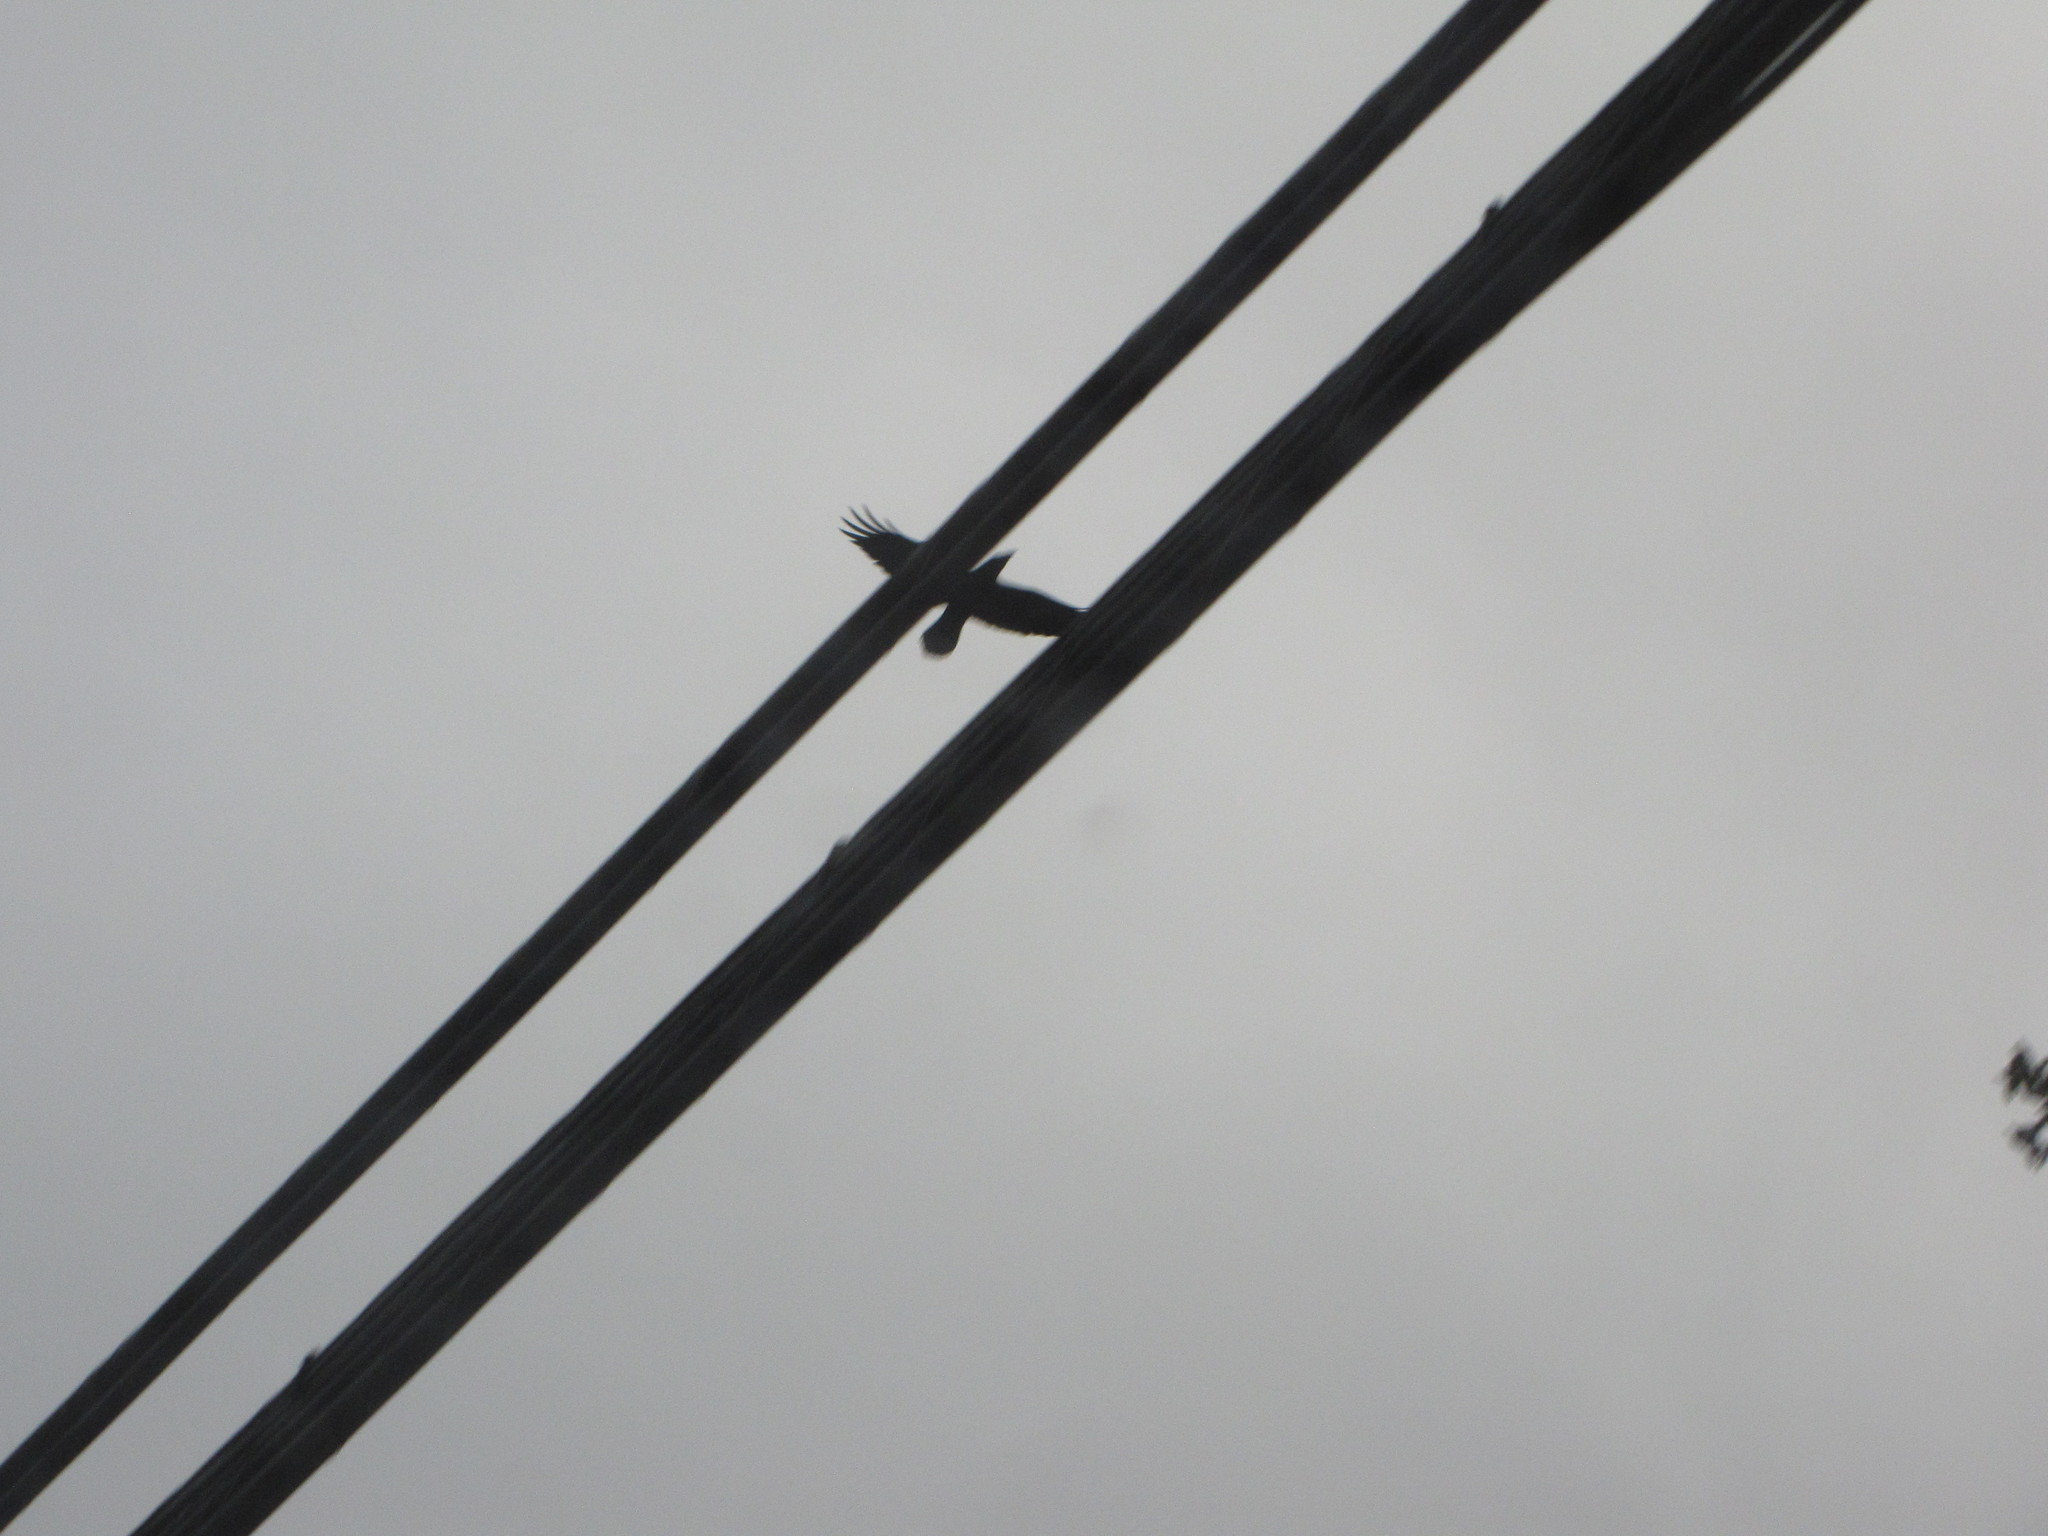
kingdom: Animalia
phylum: Chordata
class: Aves
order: Passeriformes
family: Corvidae
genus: Corvus
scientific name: Corvus corax
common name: Common raven
